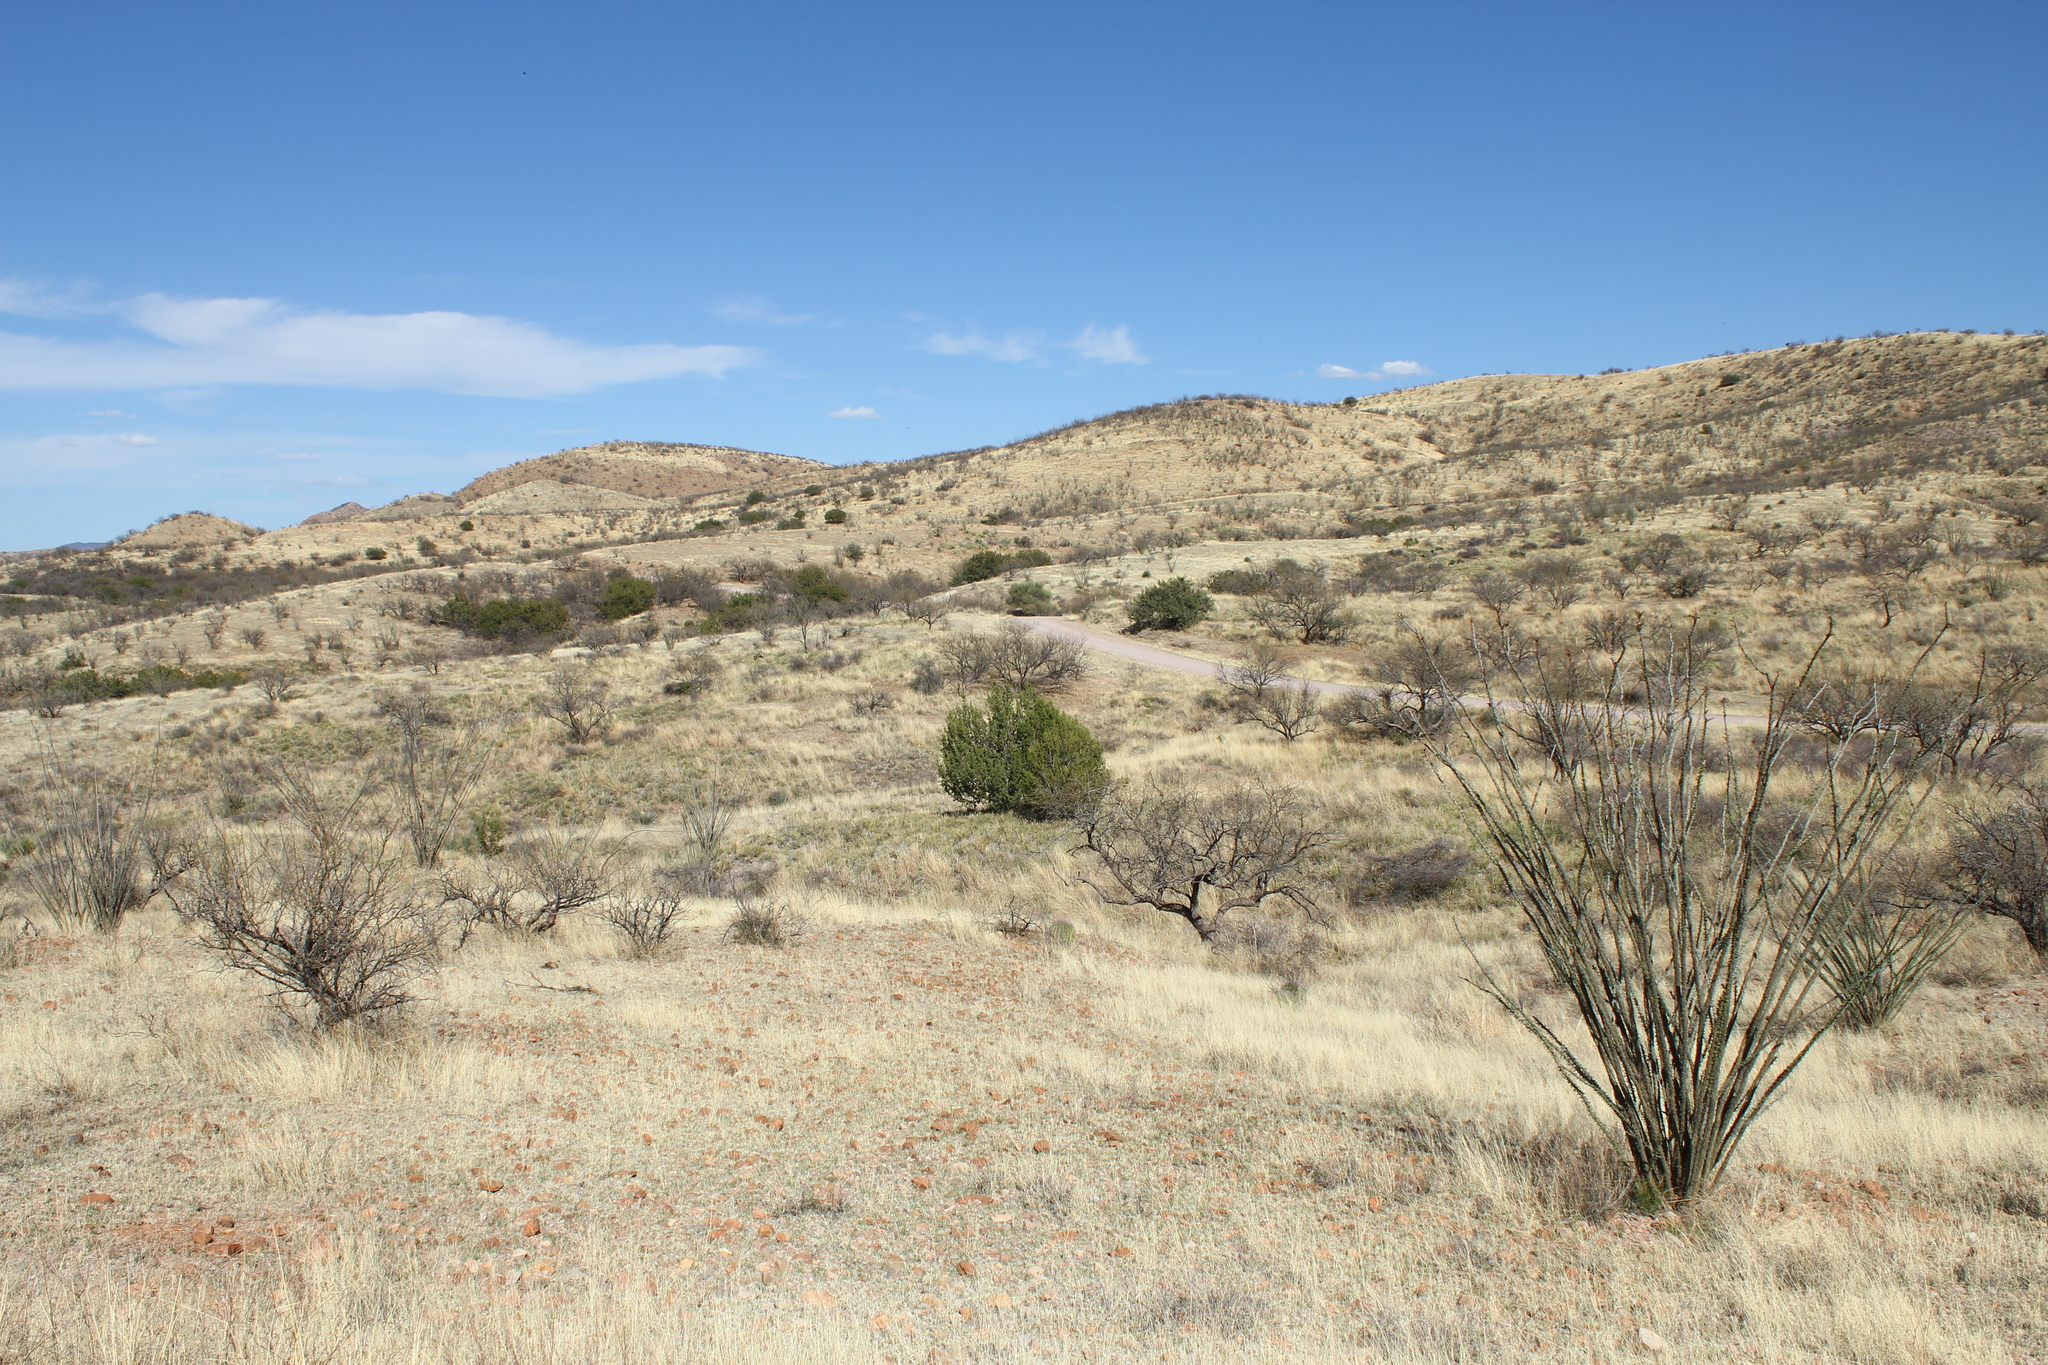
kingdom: Plantae
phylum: Tracheophyta
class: Magnoliopsida
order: Ericales
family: Fouquieriaceae
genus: Fouquieria
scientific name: Fouquieria splendens
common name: Vine-cactus
